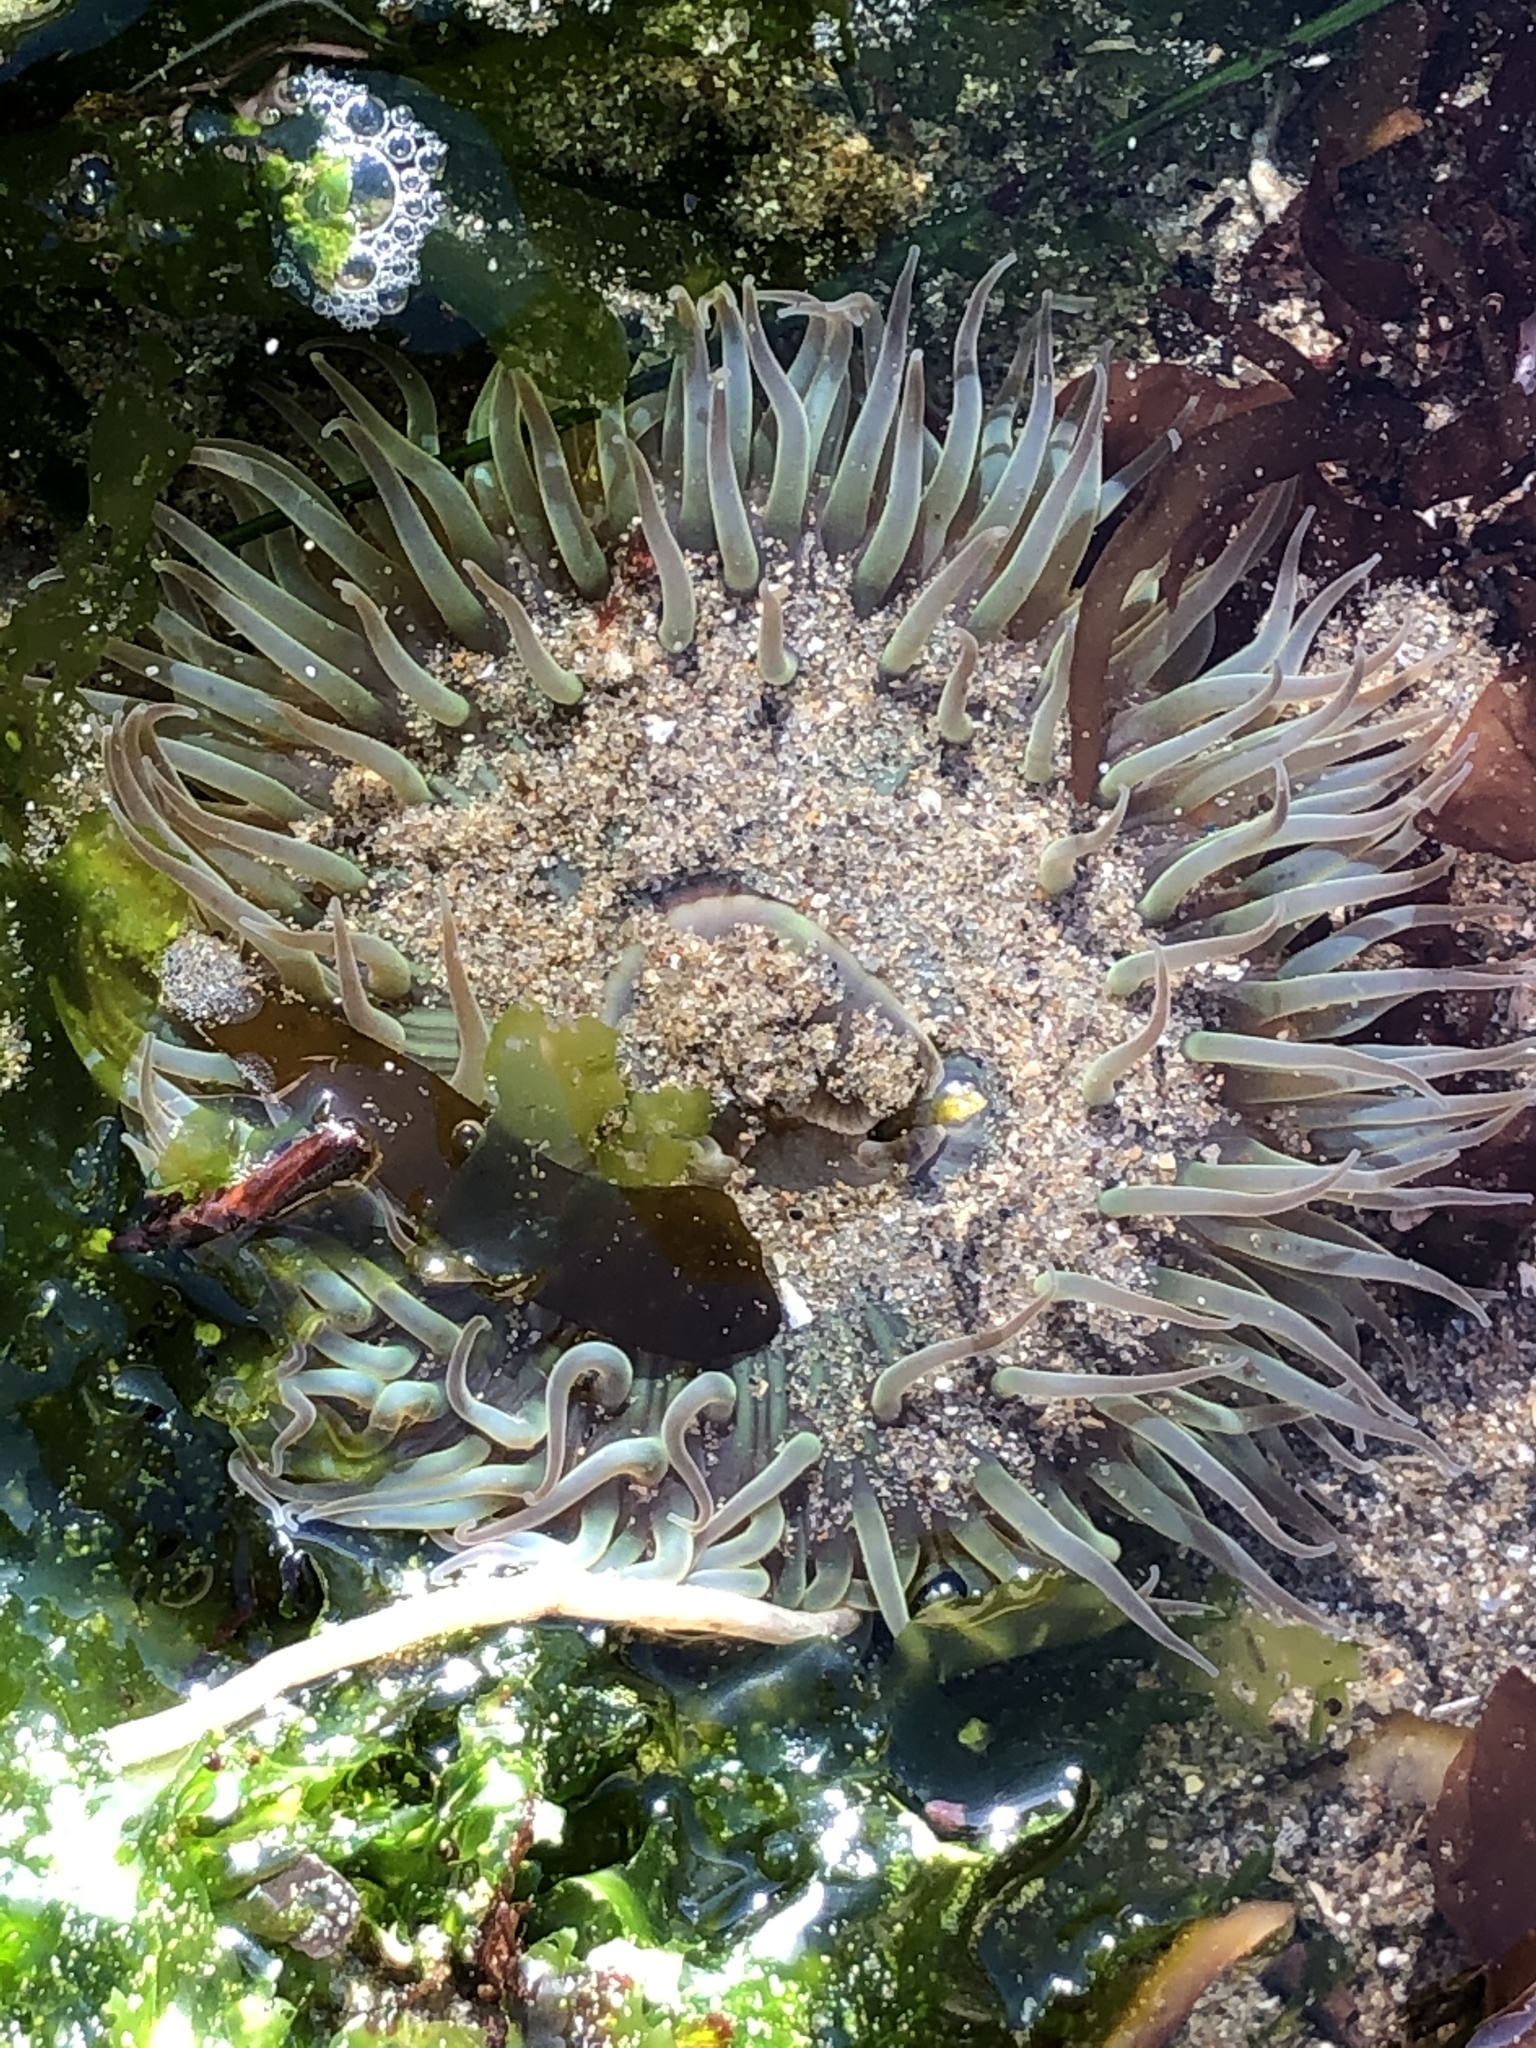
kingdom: Animalia
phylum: Cnidaria
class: Anthozoa
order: Actiniaria
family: Actiniidae
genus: Anthopleura
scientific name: Anthopleura sola
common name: Sun anemone
